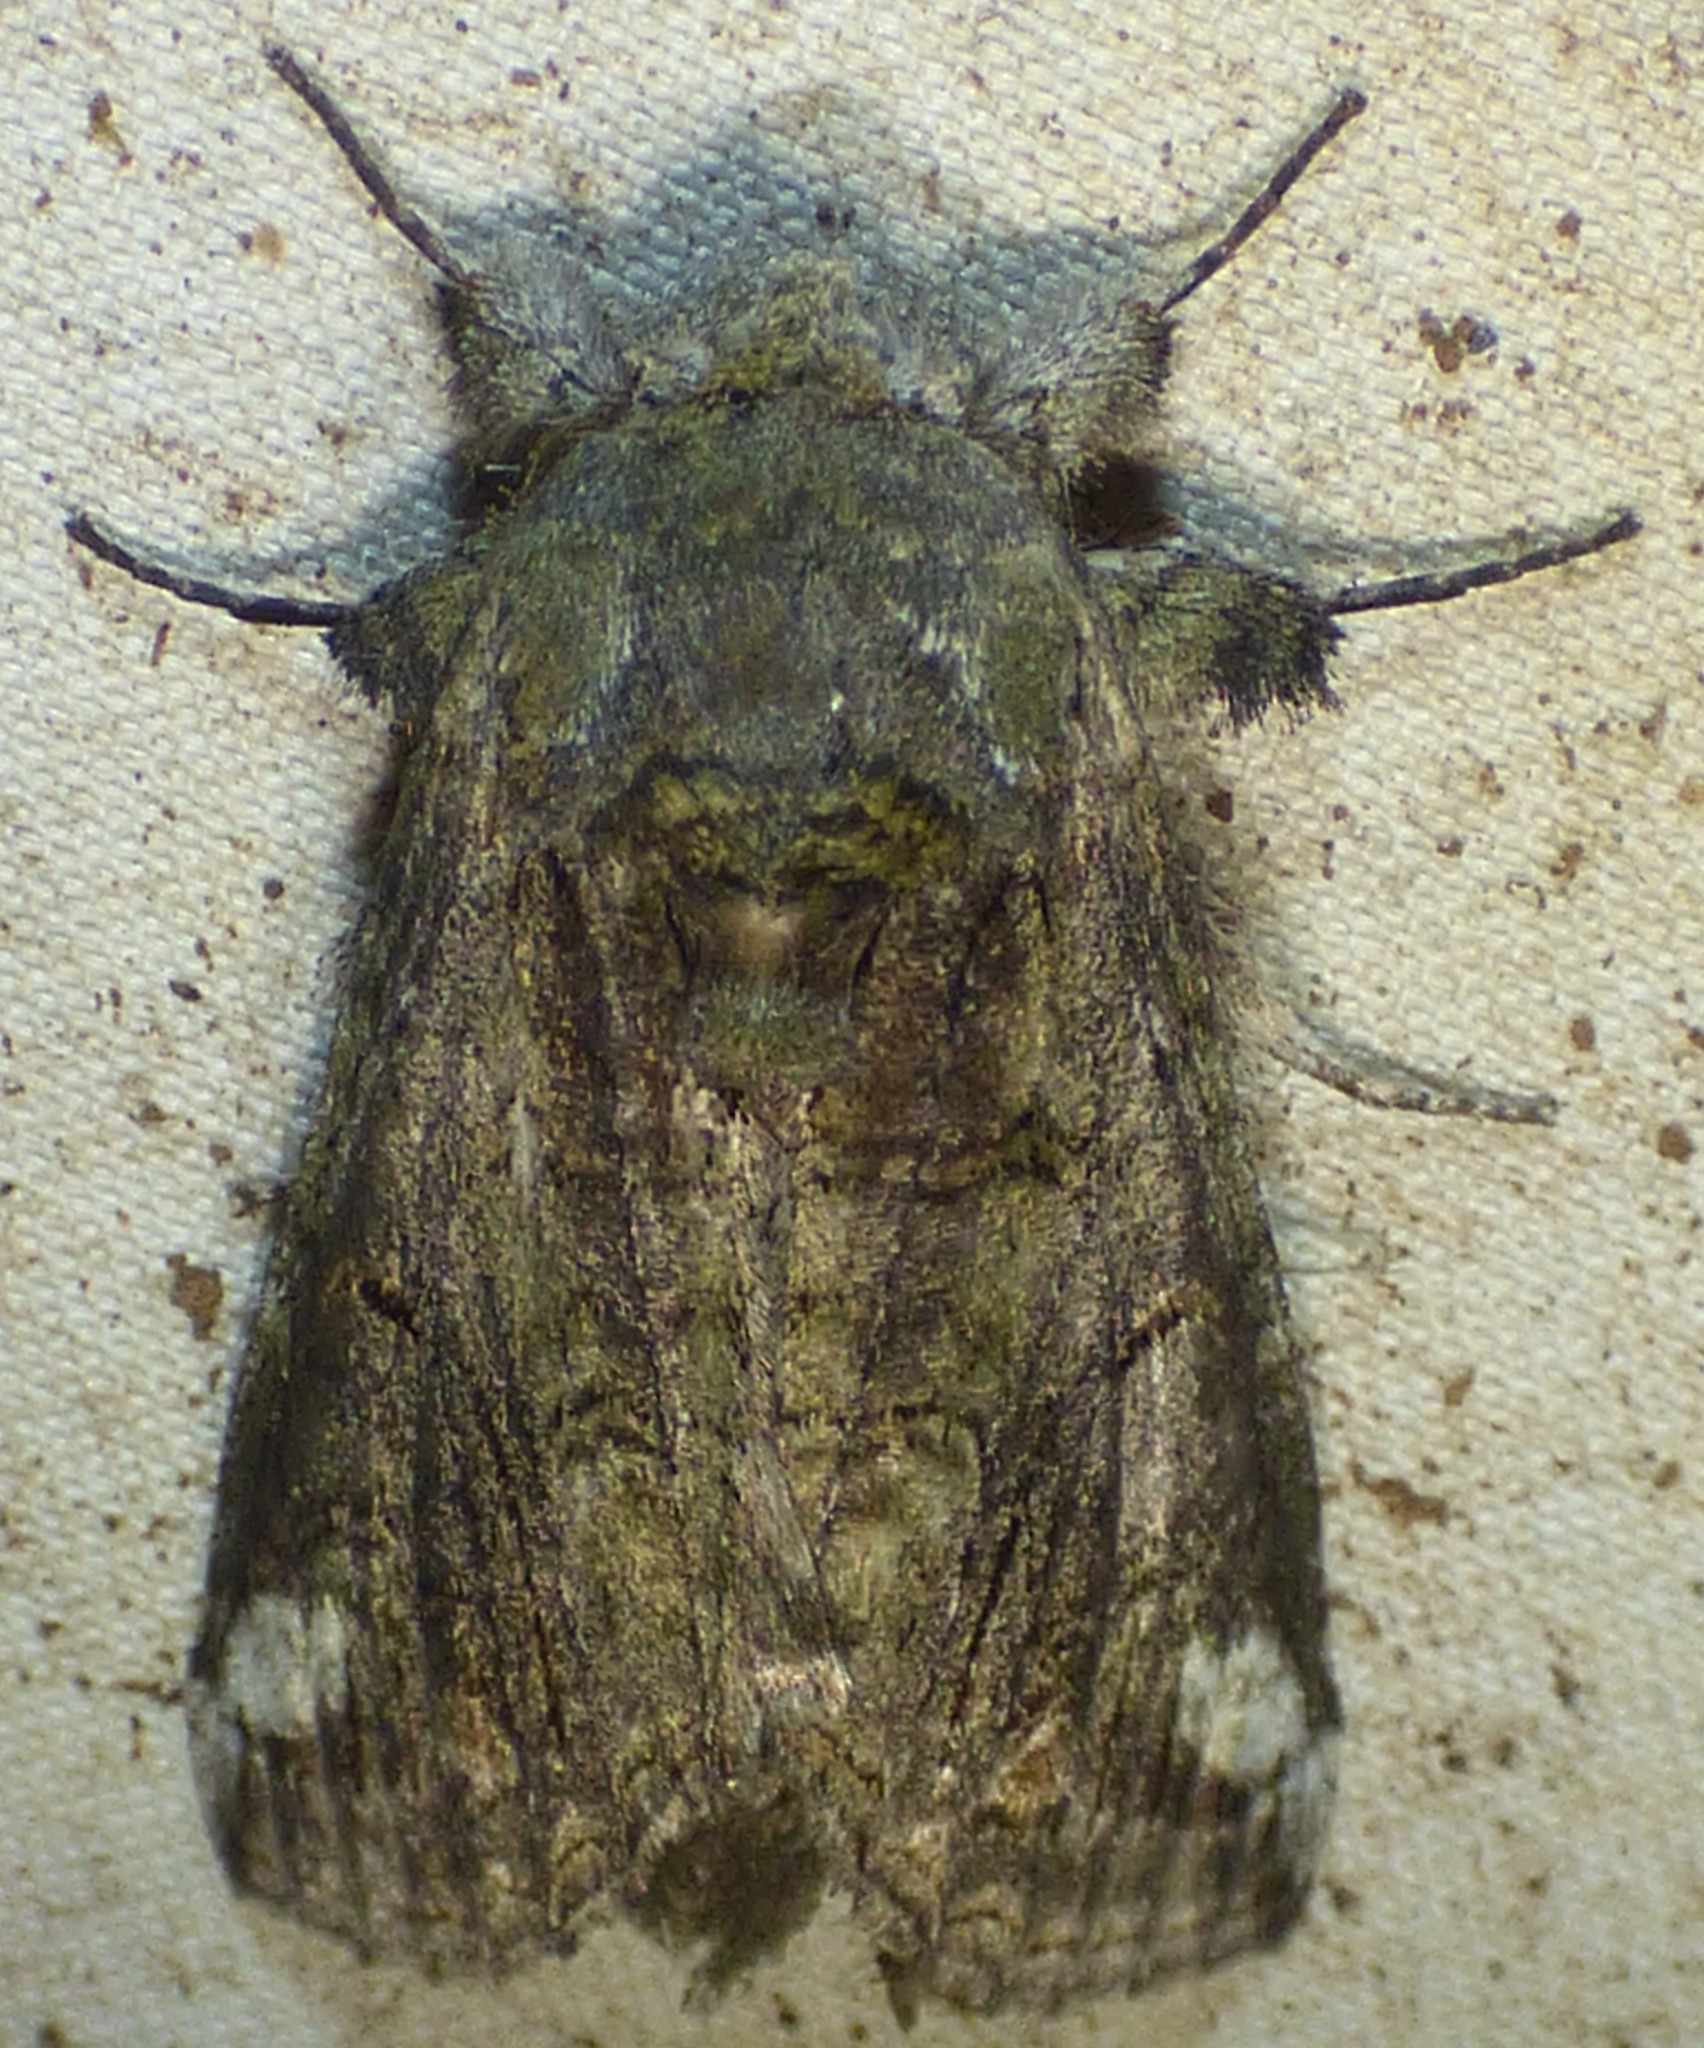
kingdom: Animalia
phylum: Arthropoda
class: Insecta
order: Lepidoptera
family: Notodontidae
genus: Heterocampa
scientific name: Heterocampa obliqua
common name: Oblique heterocampa
